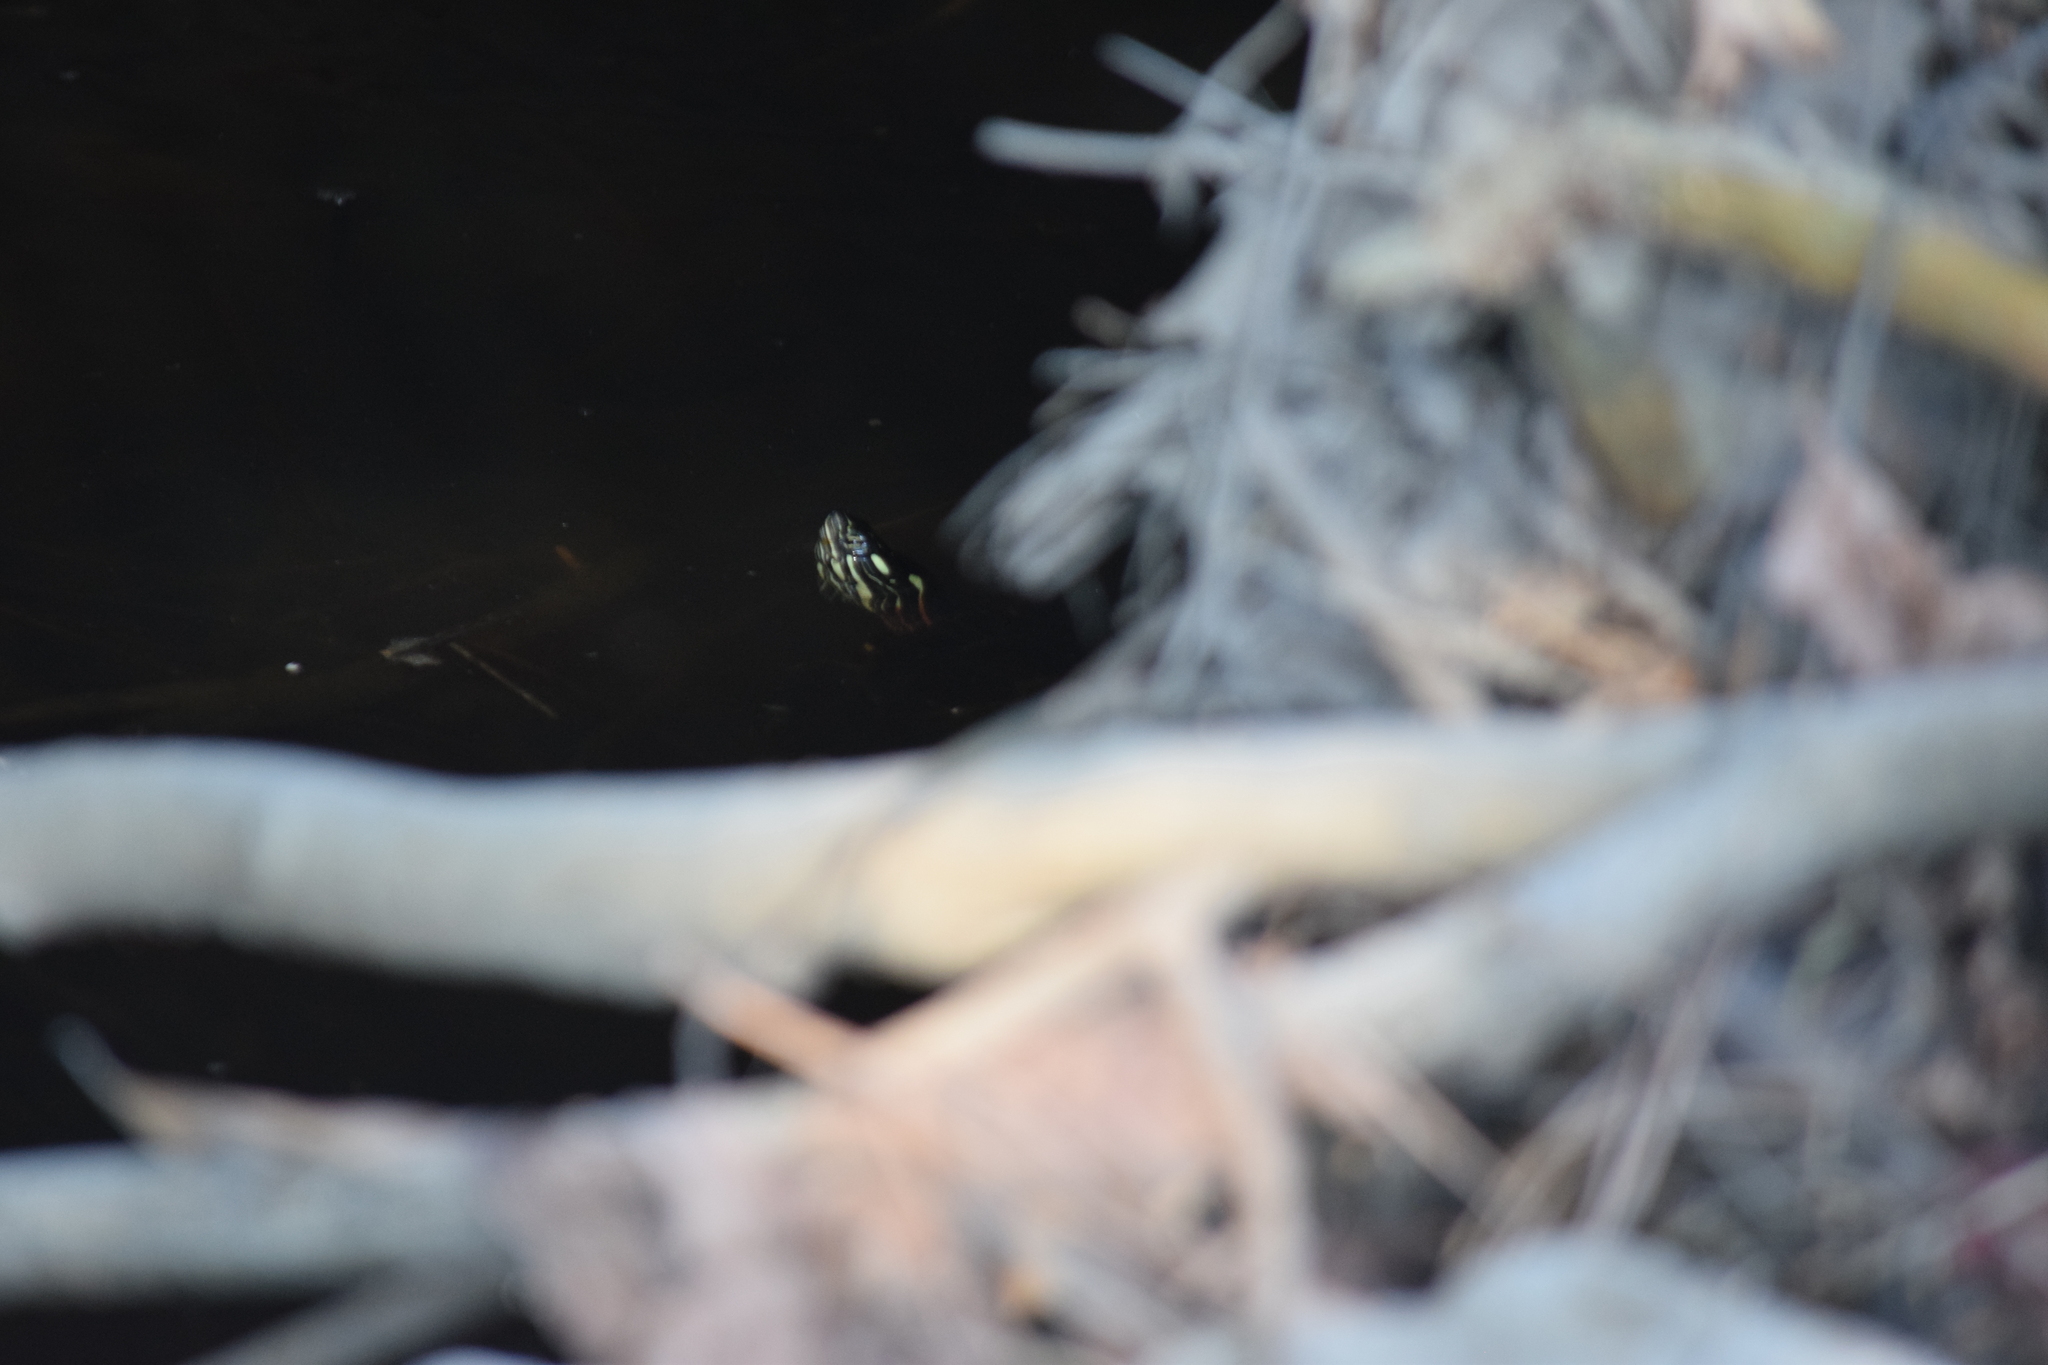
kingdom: Animalia
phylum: Chordata
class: Testudines
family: Emydidae
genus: Chrysemys
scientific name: Chrysemys picta
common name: Painted turtle
